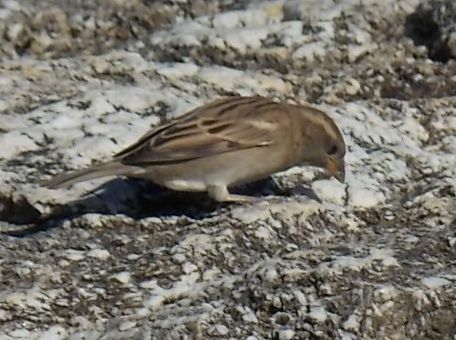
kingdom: Animalia
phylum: Chordata
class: Aves
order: Passeriformes
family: Passeridae
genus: Passer
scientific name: Passer domesticus
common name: House sparrow
